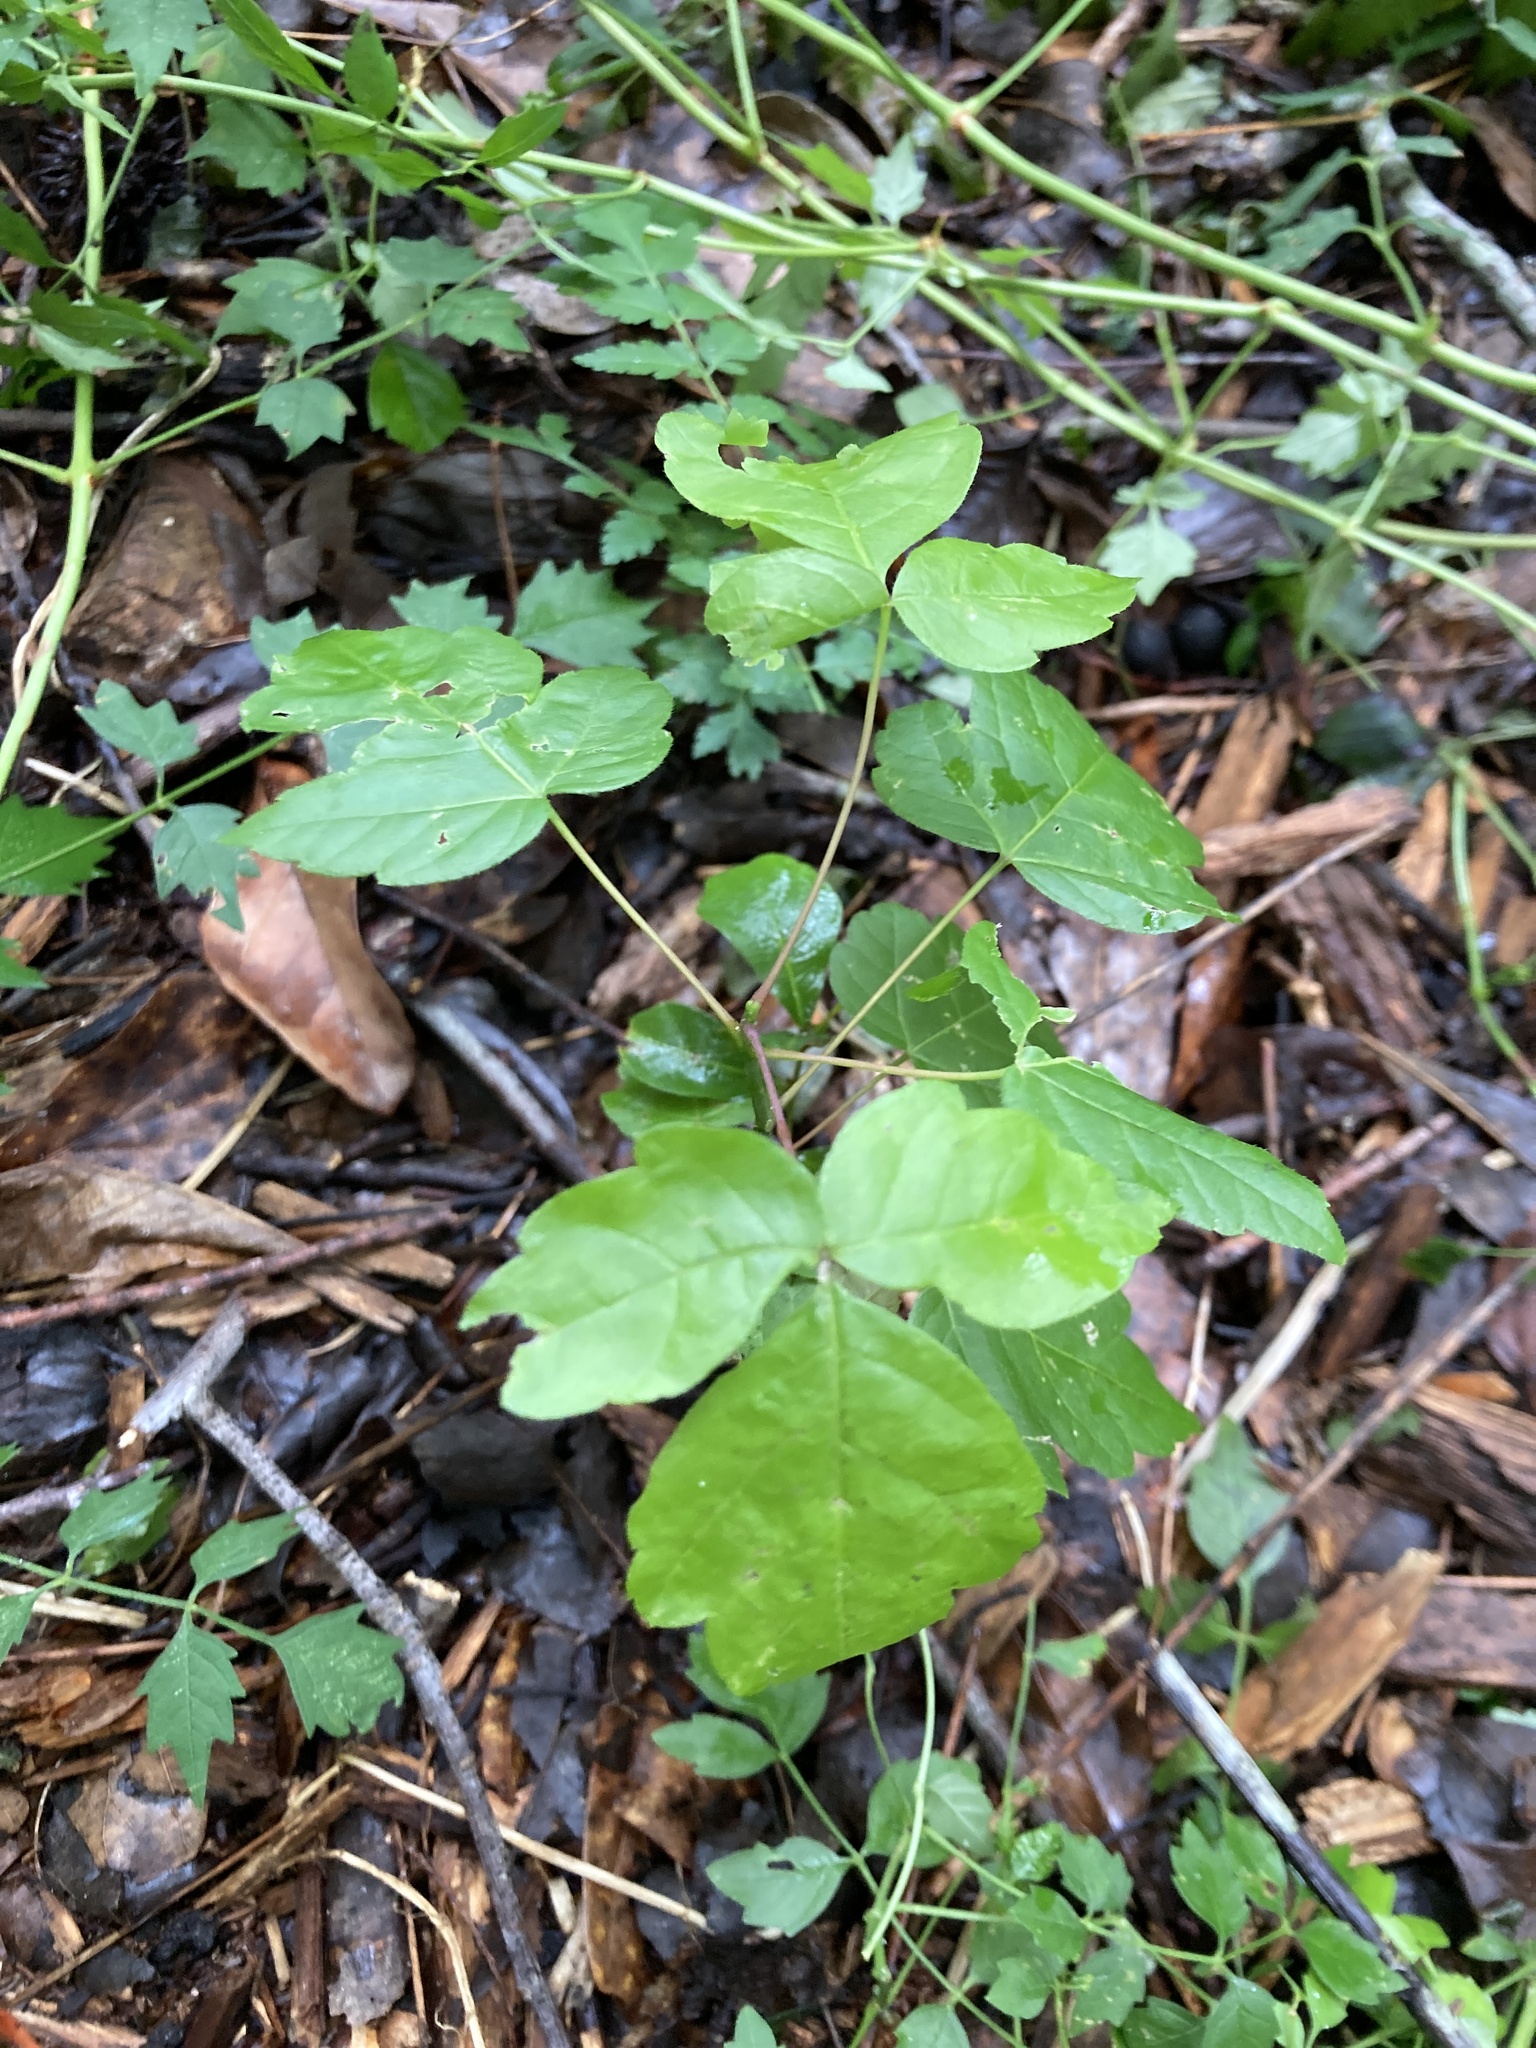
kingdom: Plantae
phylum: Tracheophyta
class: Magnoliopsida
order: Sapindales
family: Sapindaceae
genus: Acer
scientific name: Acer negundo
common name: Ashleaf maple
